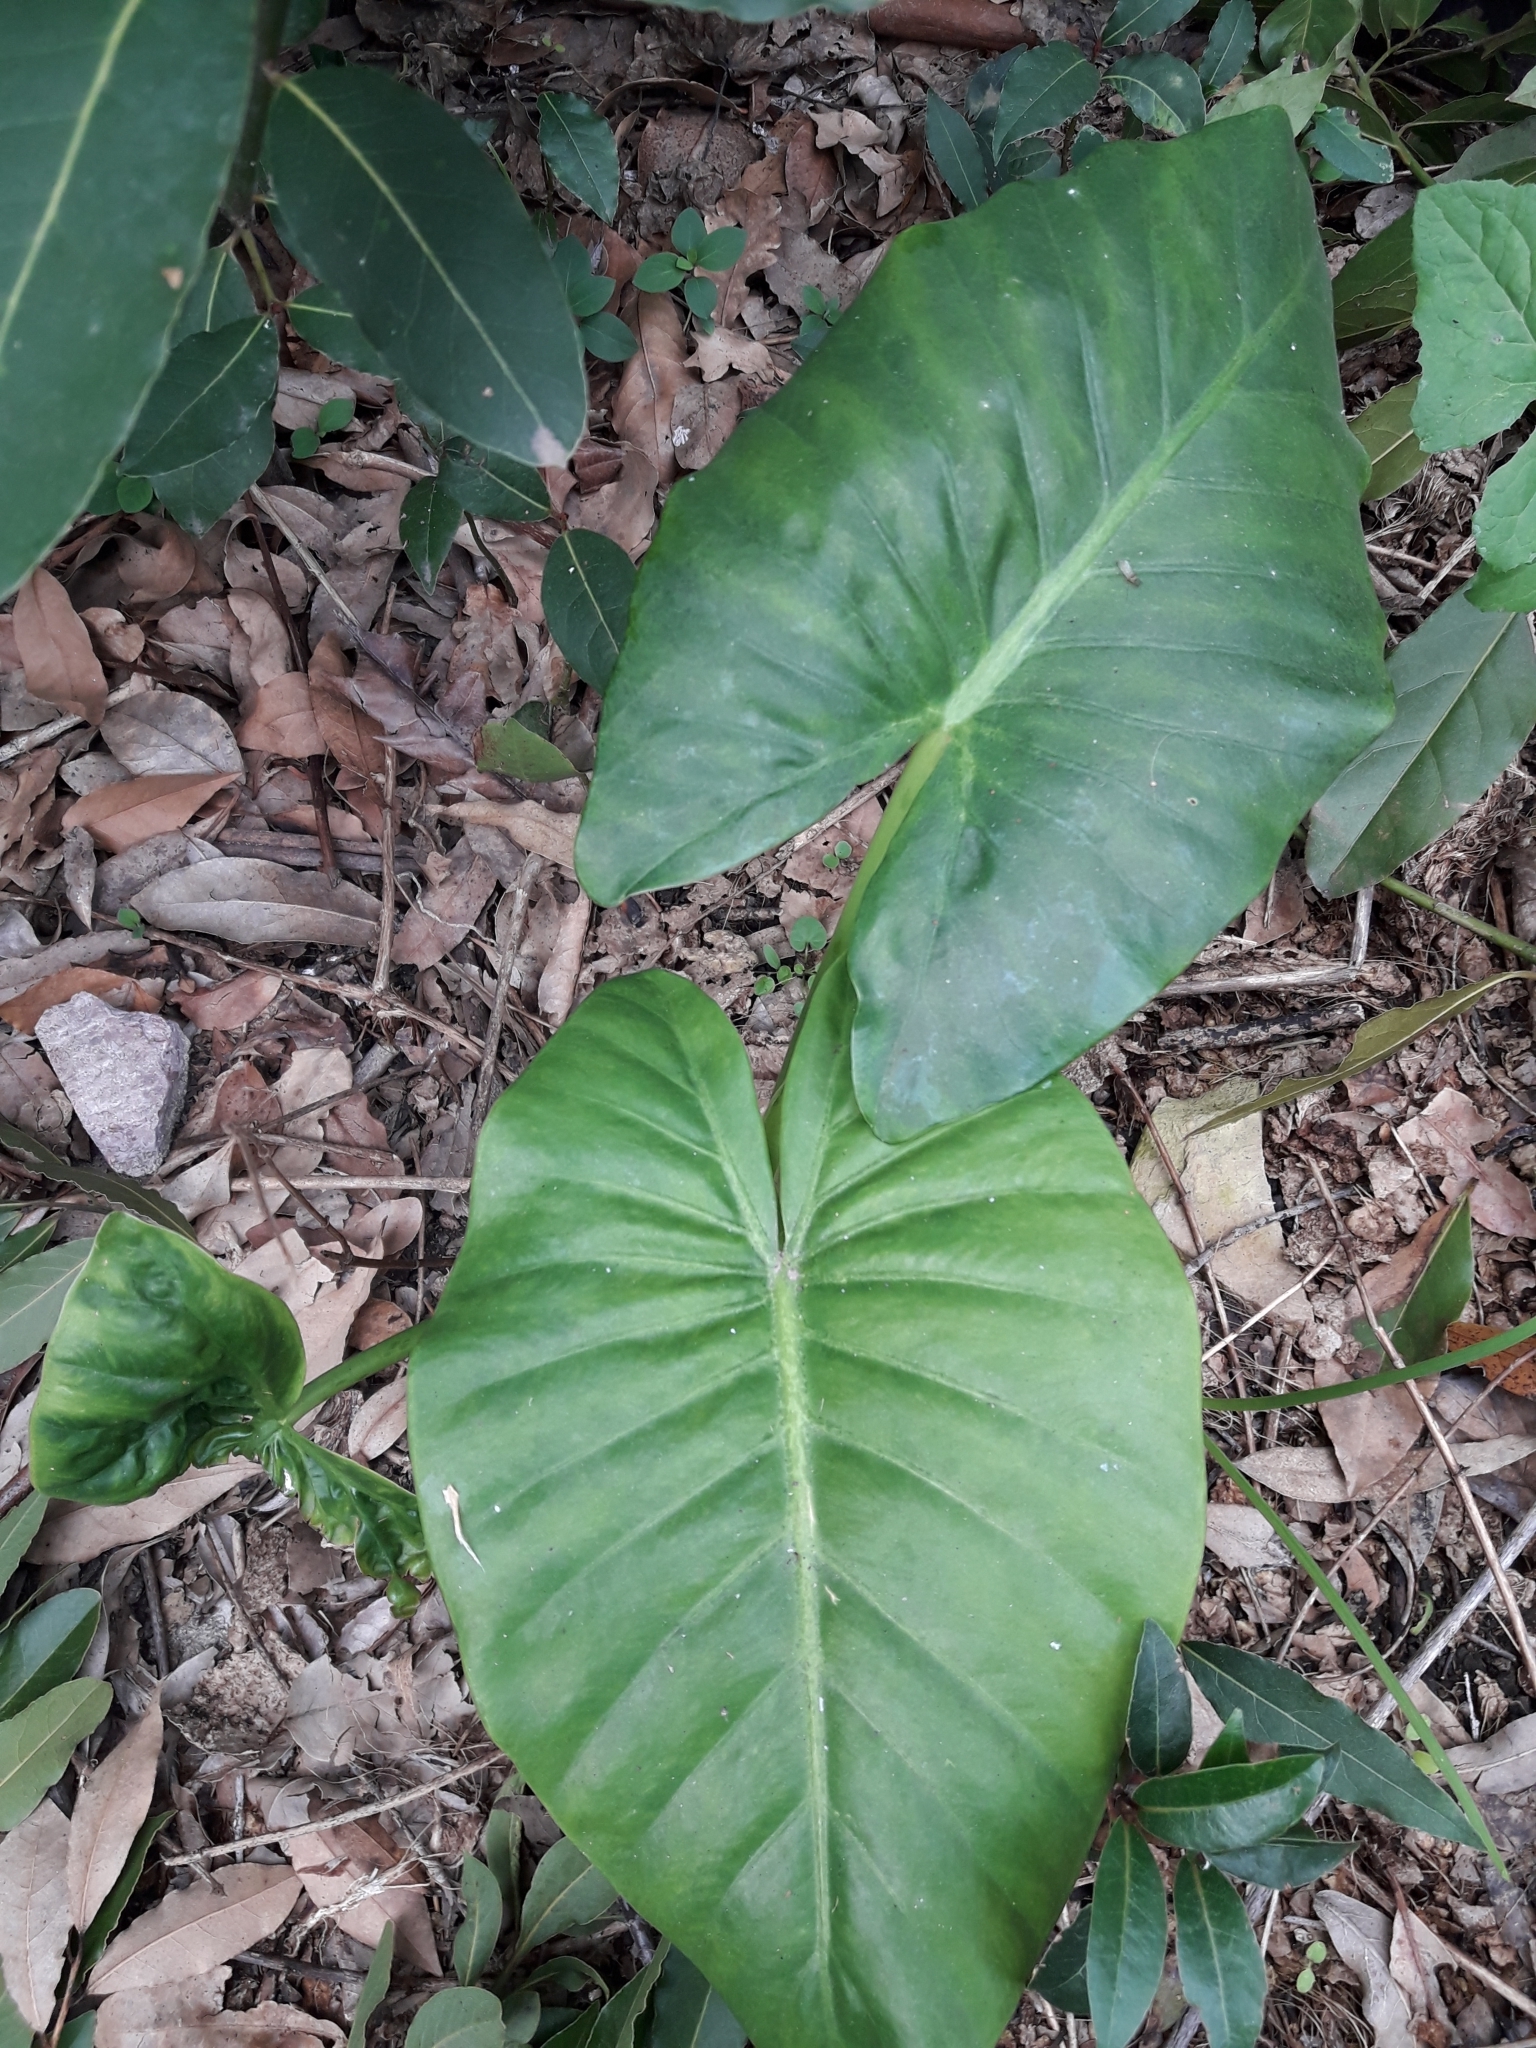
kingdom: Plantae
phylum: Tracheophyta
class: Liliopsida
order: Alismatales
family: Araceae
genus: Alocasia
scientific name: Alocasia brisbanensis
